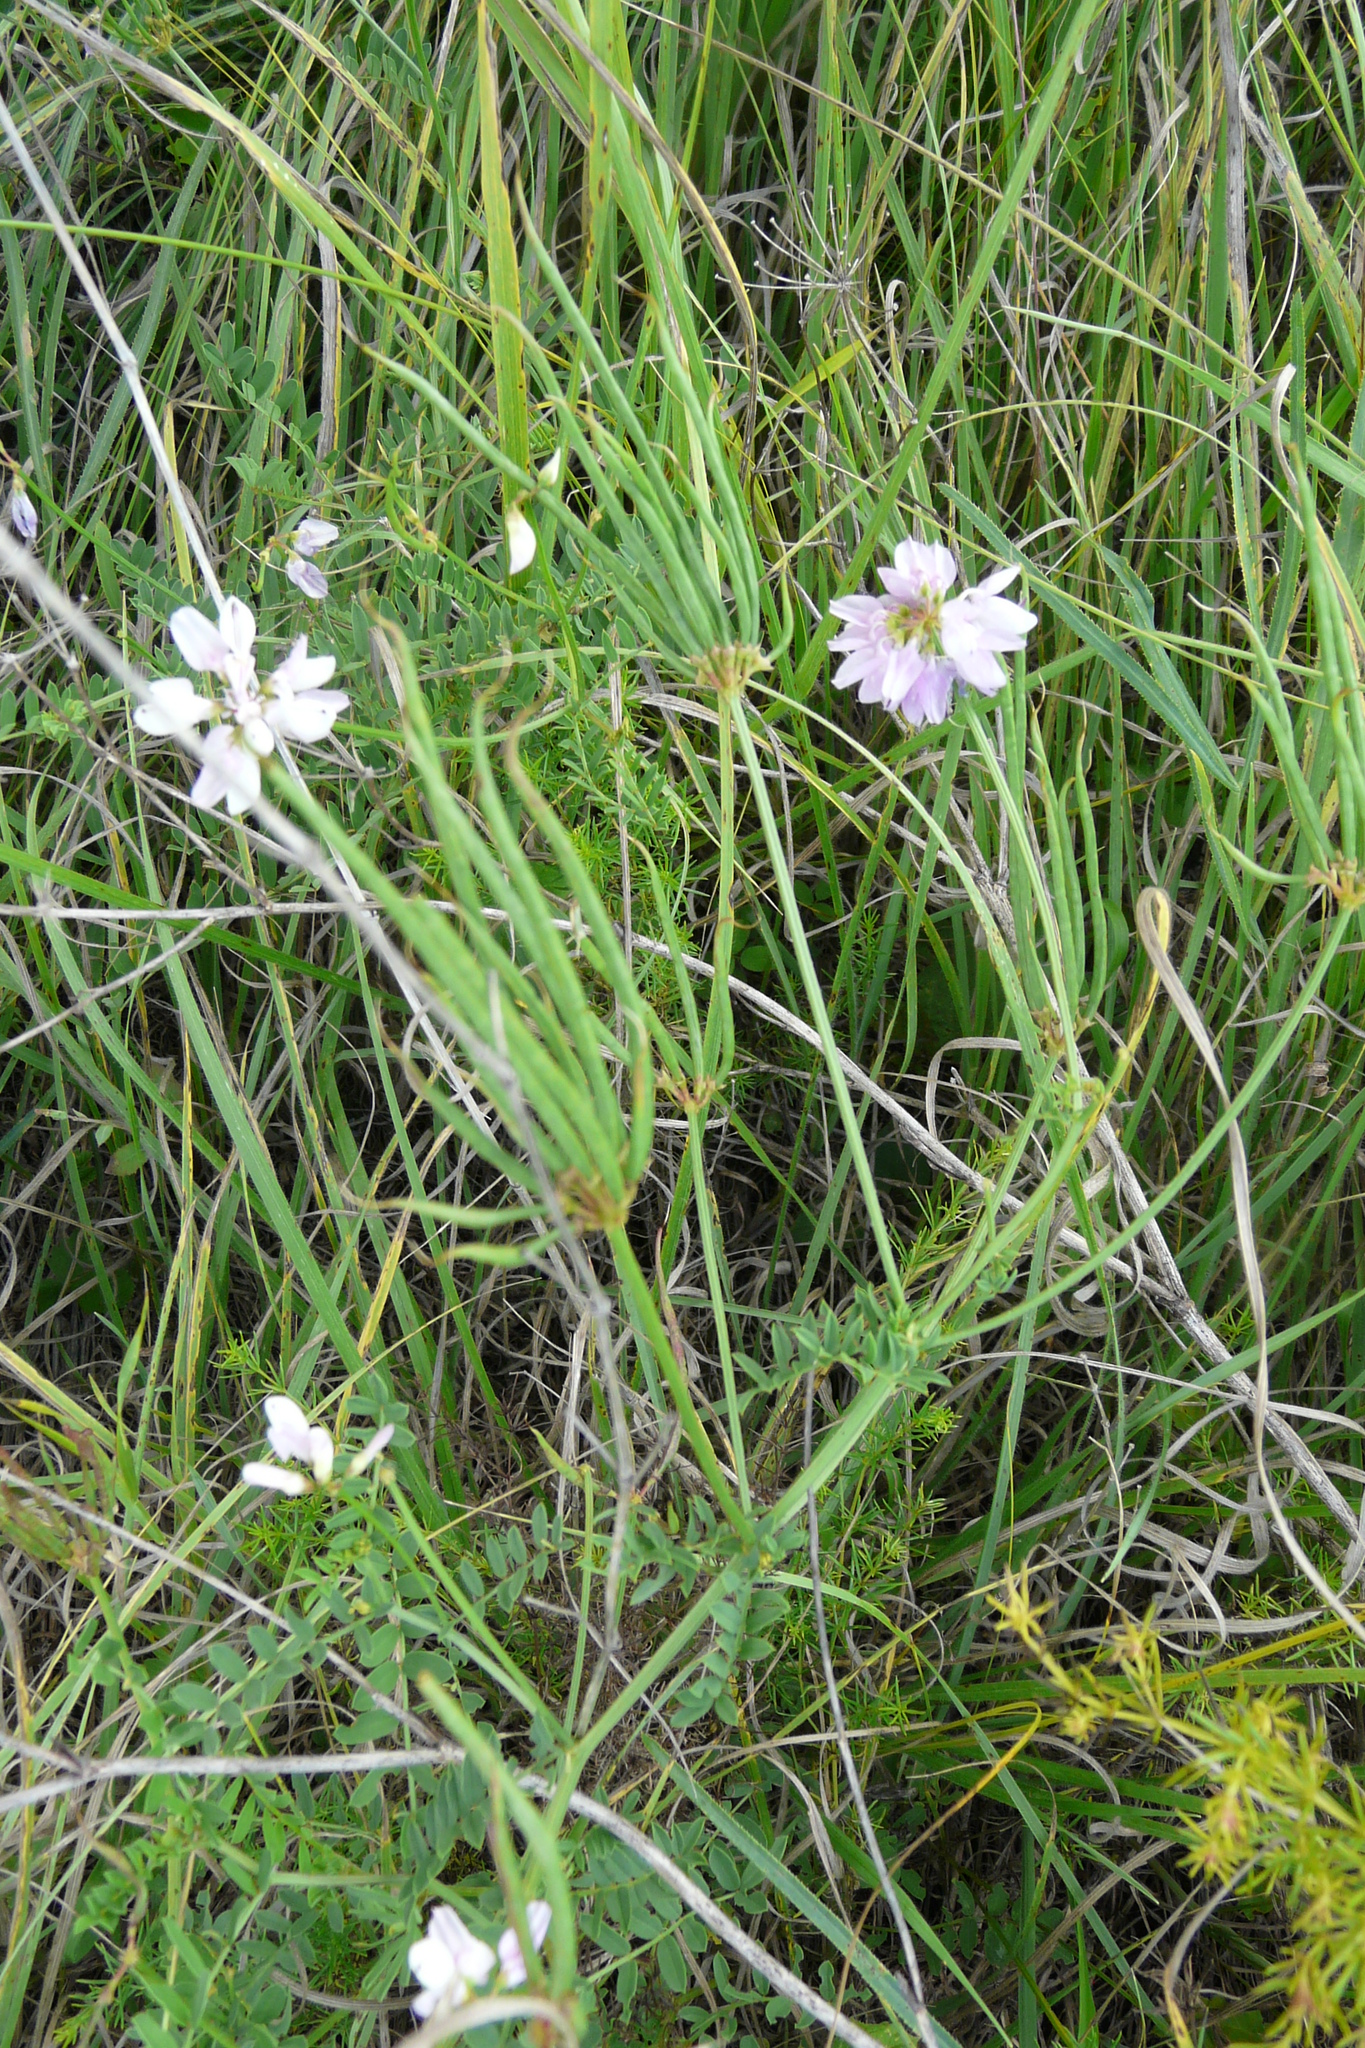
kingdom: Plantae
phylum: Tracheophyta
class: Magnoliopsida
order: Fabales
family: Fabaceae
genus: Coronilla
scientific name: Coronilla varia
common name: Crownvetch
